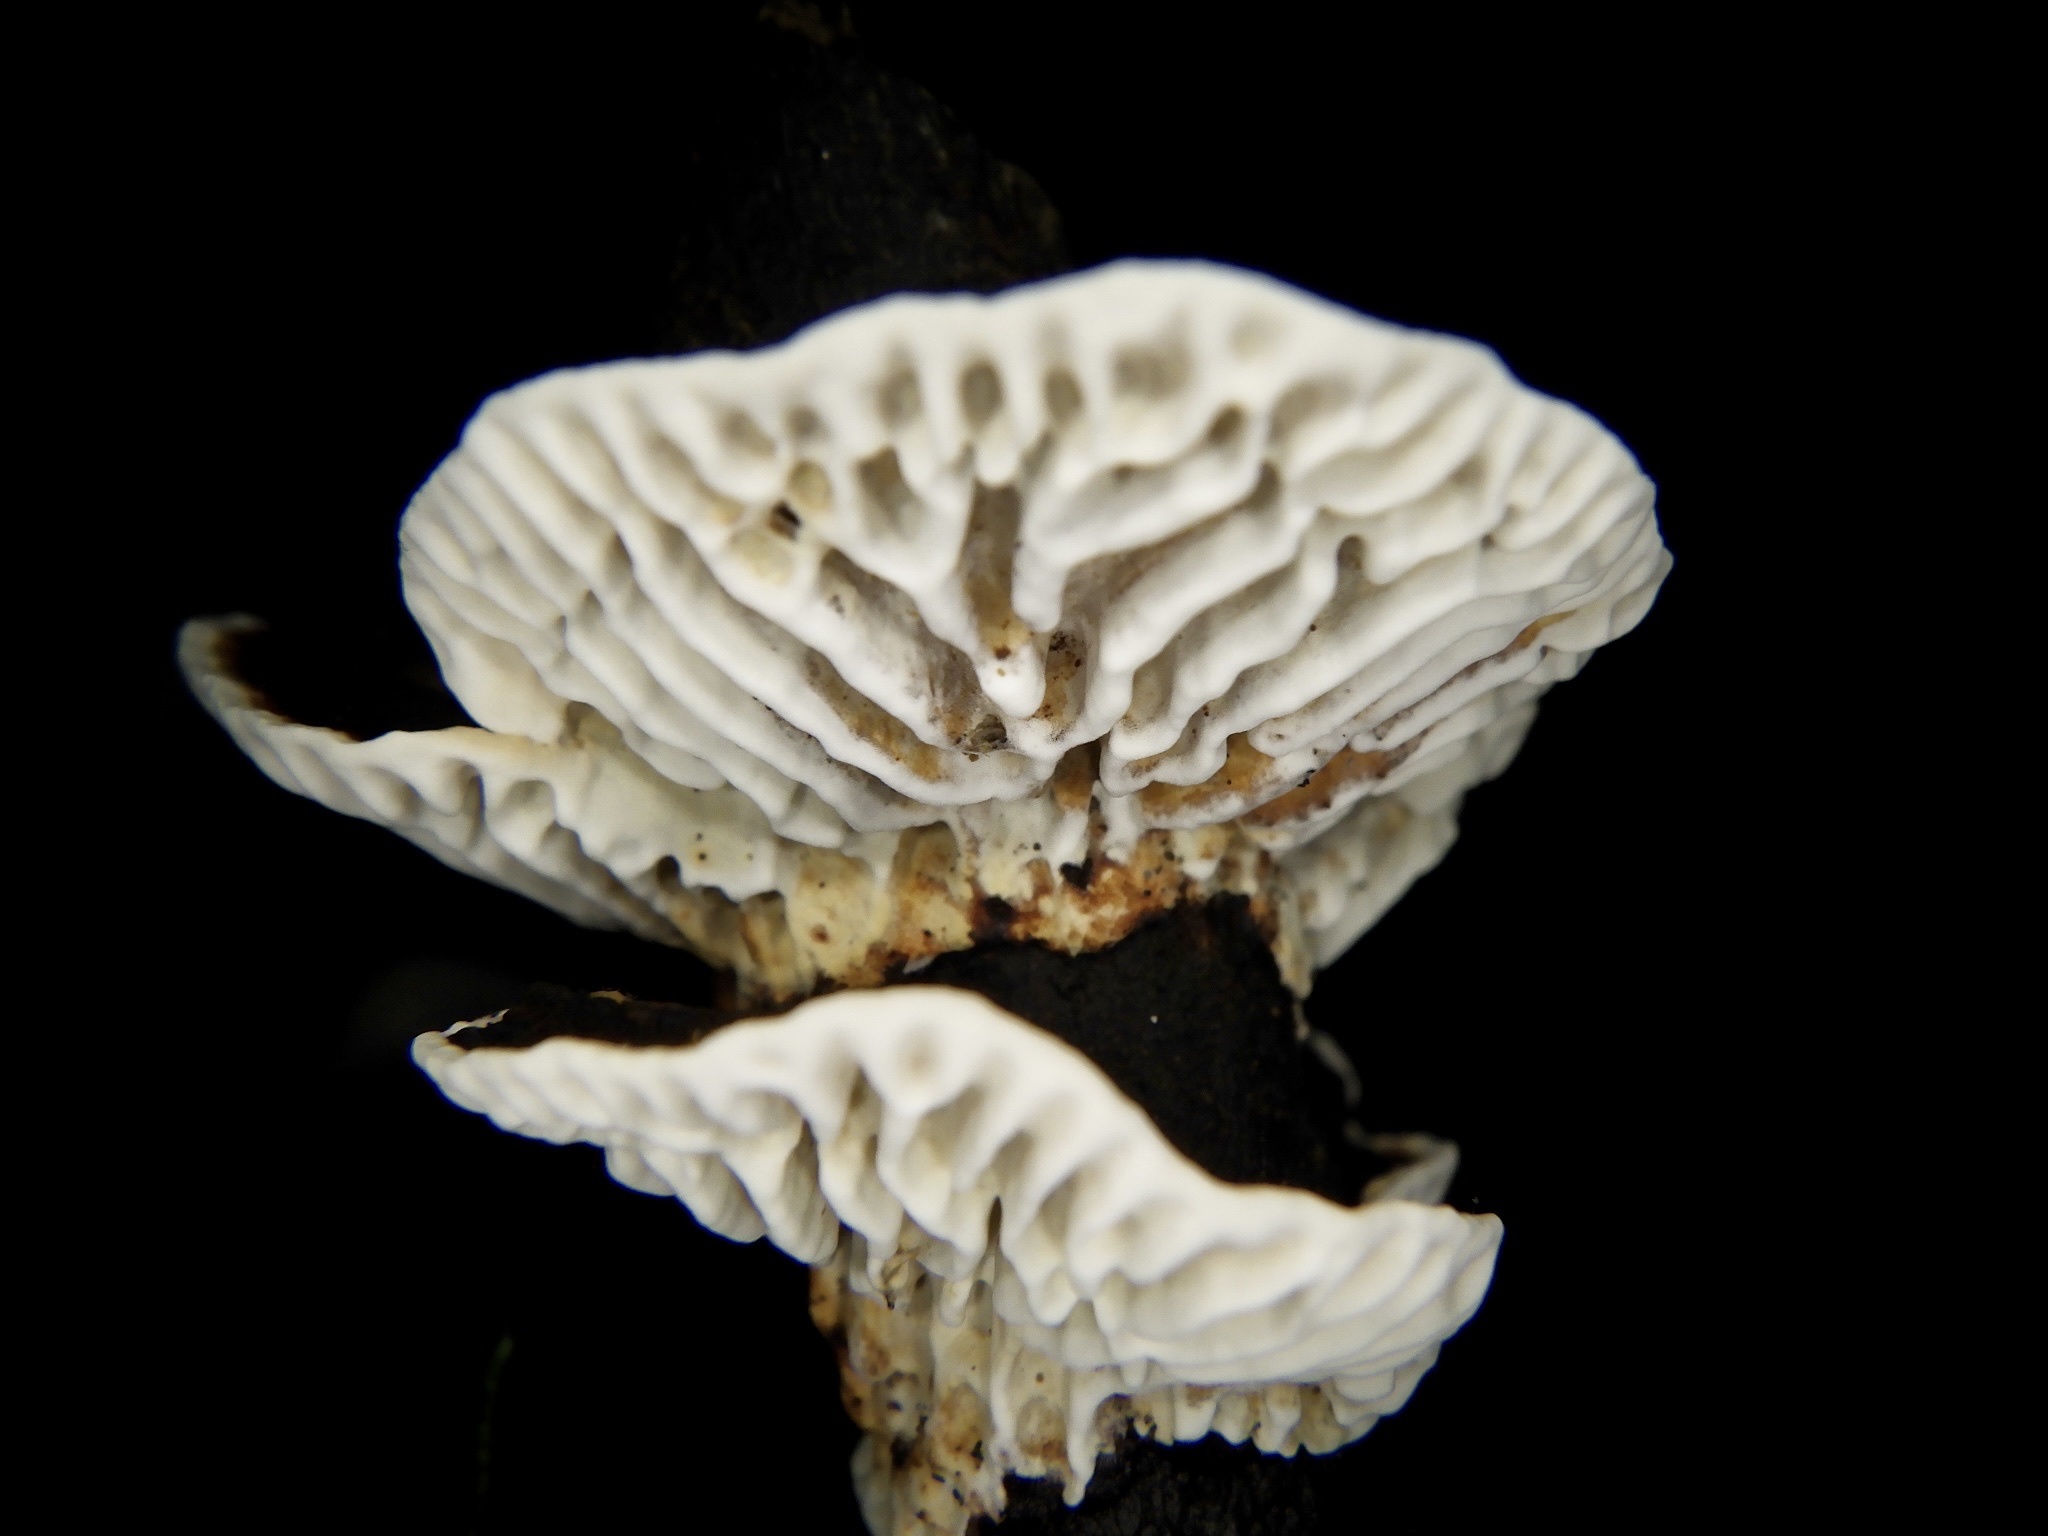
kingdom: Fungi
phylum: Basidiomycota
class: Agaricomycetes
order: Polyporales
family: Polyporaceae
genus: Lenzites
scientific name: Lenzites styracinus
